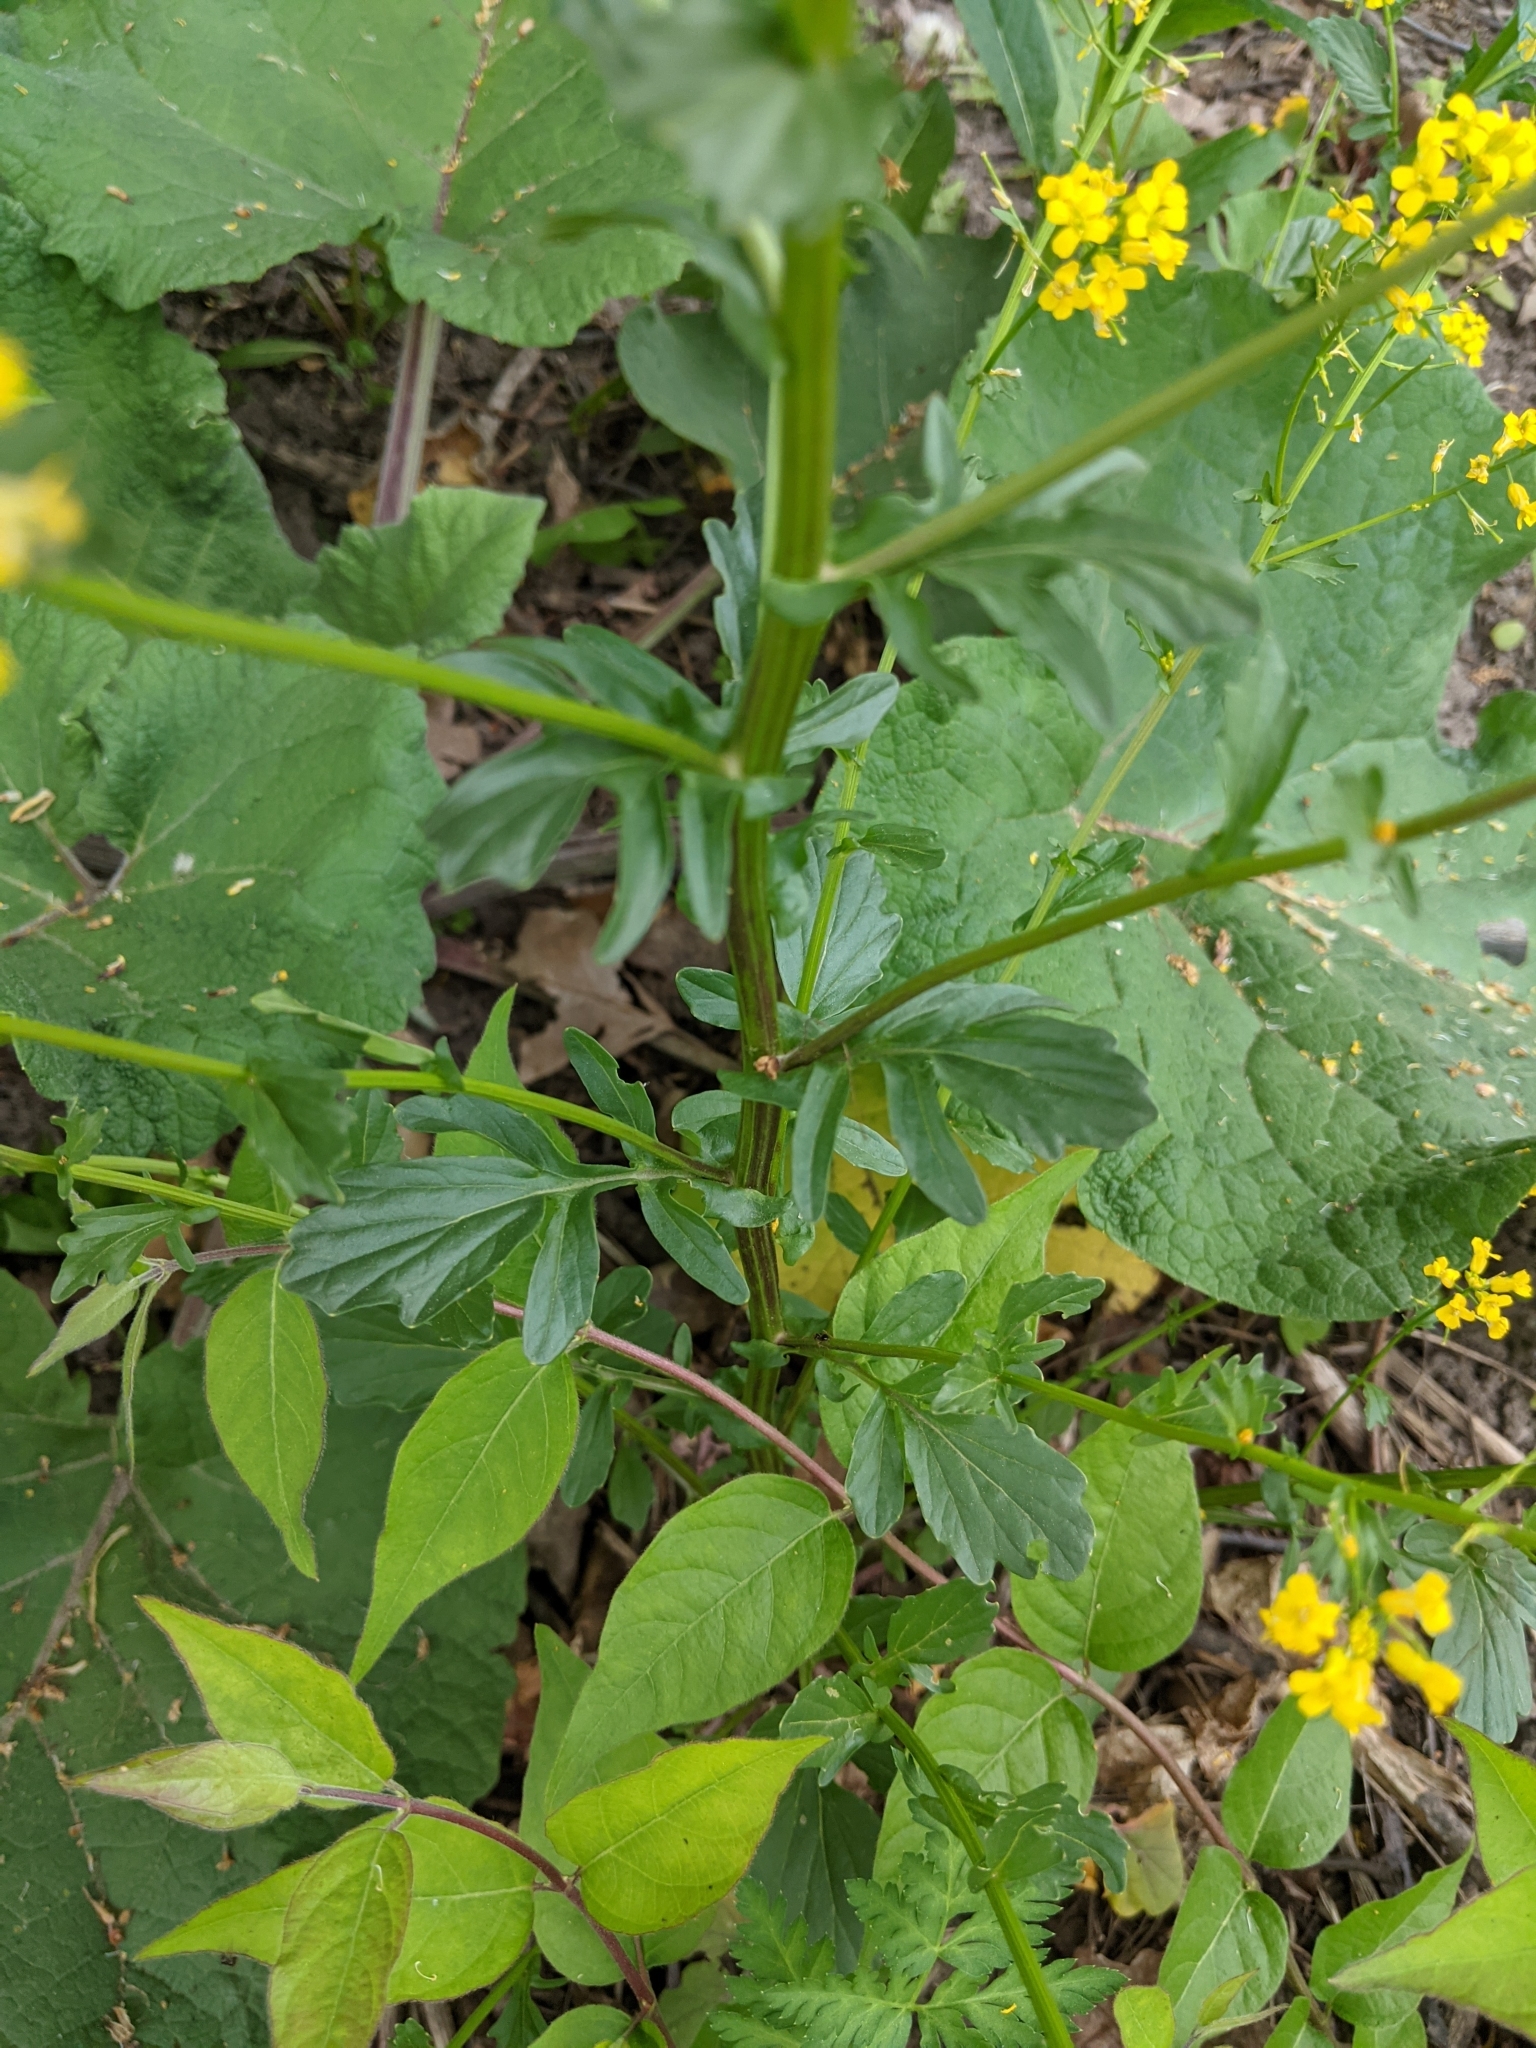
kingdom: Plantae
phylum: Tracheophyta
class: Magnoliopsida
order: Brassicales
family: Brassicaceae
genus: Barbarea
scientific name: Barbarea vulgaris
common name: Cressy-greens
